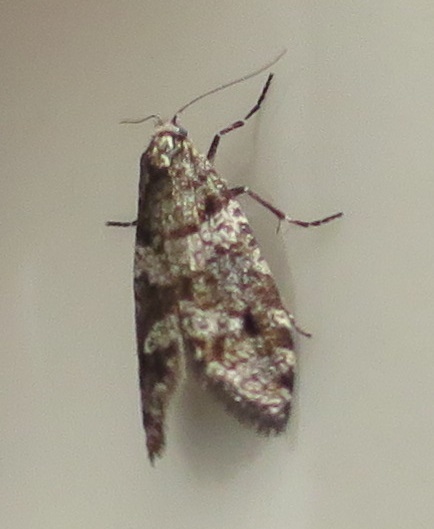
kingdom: Animalia
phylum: Arthropoda
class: Insecta
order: Lepidoptera
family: Psychidae
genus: Lepidoscia
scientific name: Lepidoscia heliochares
